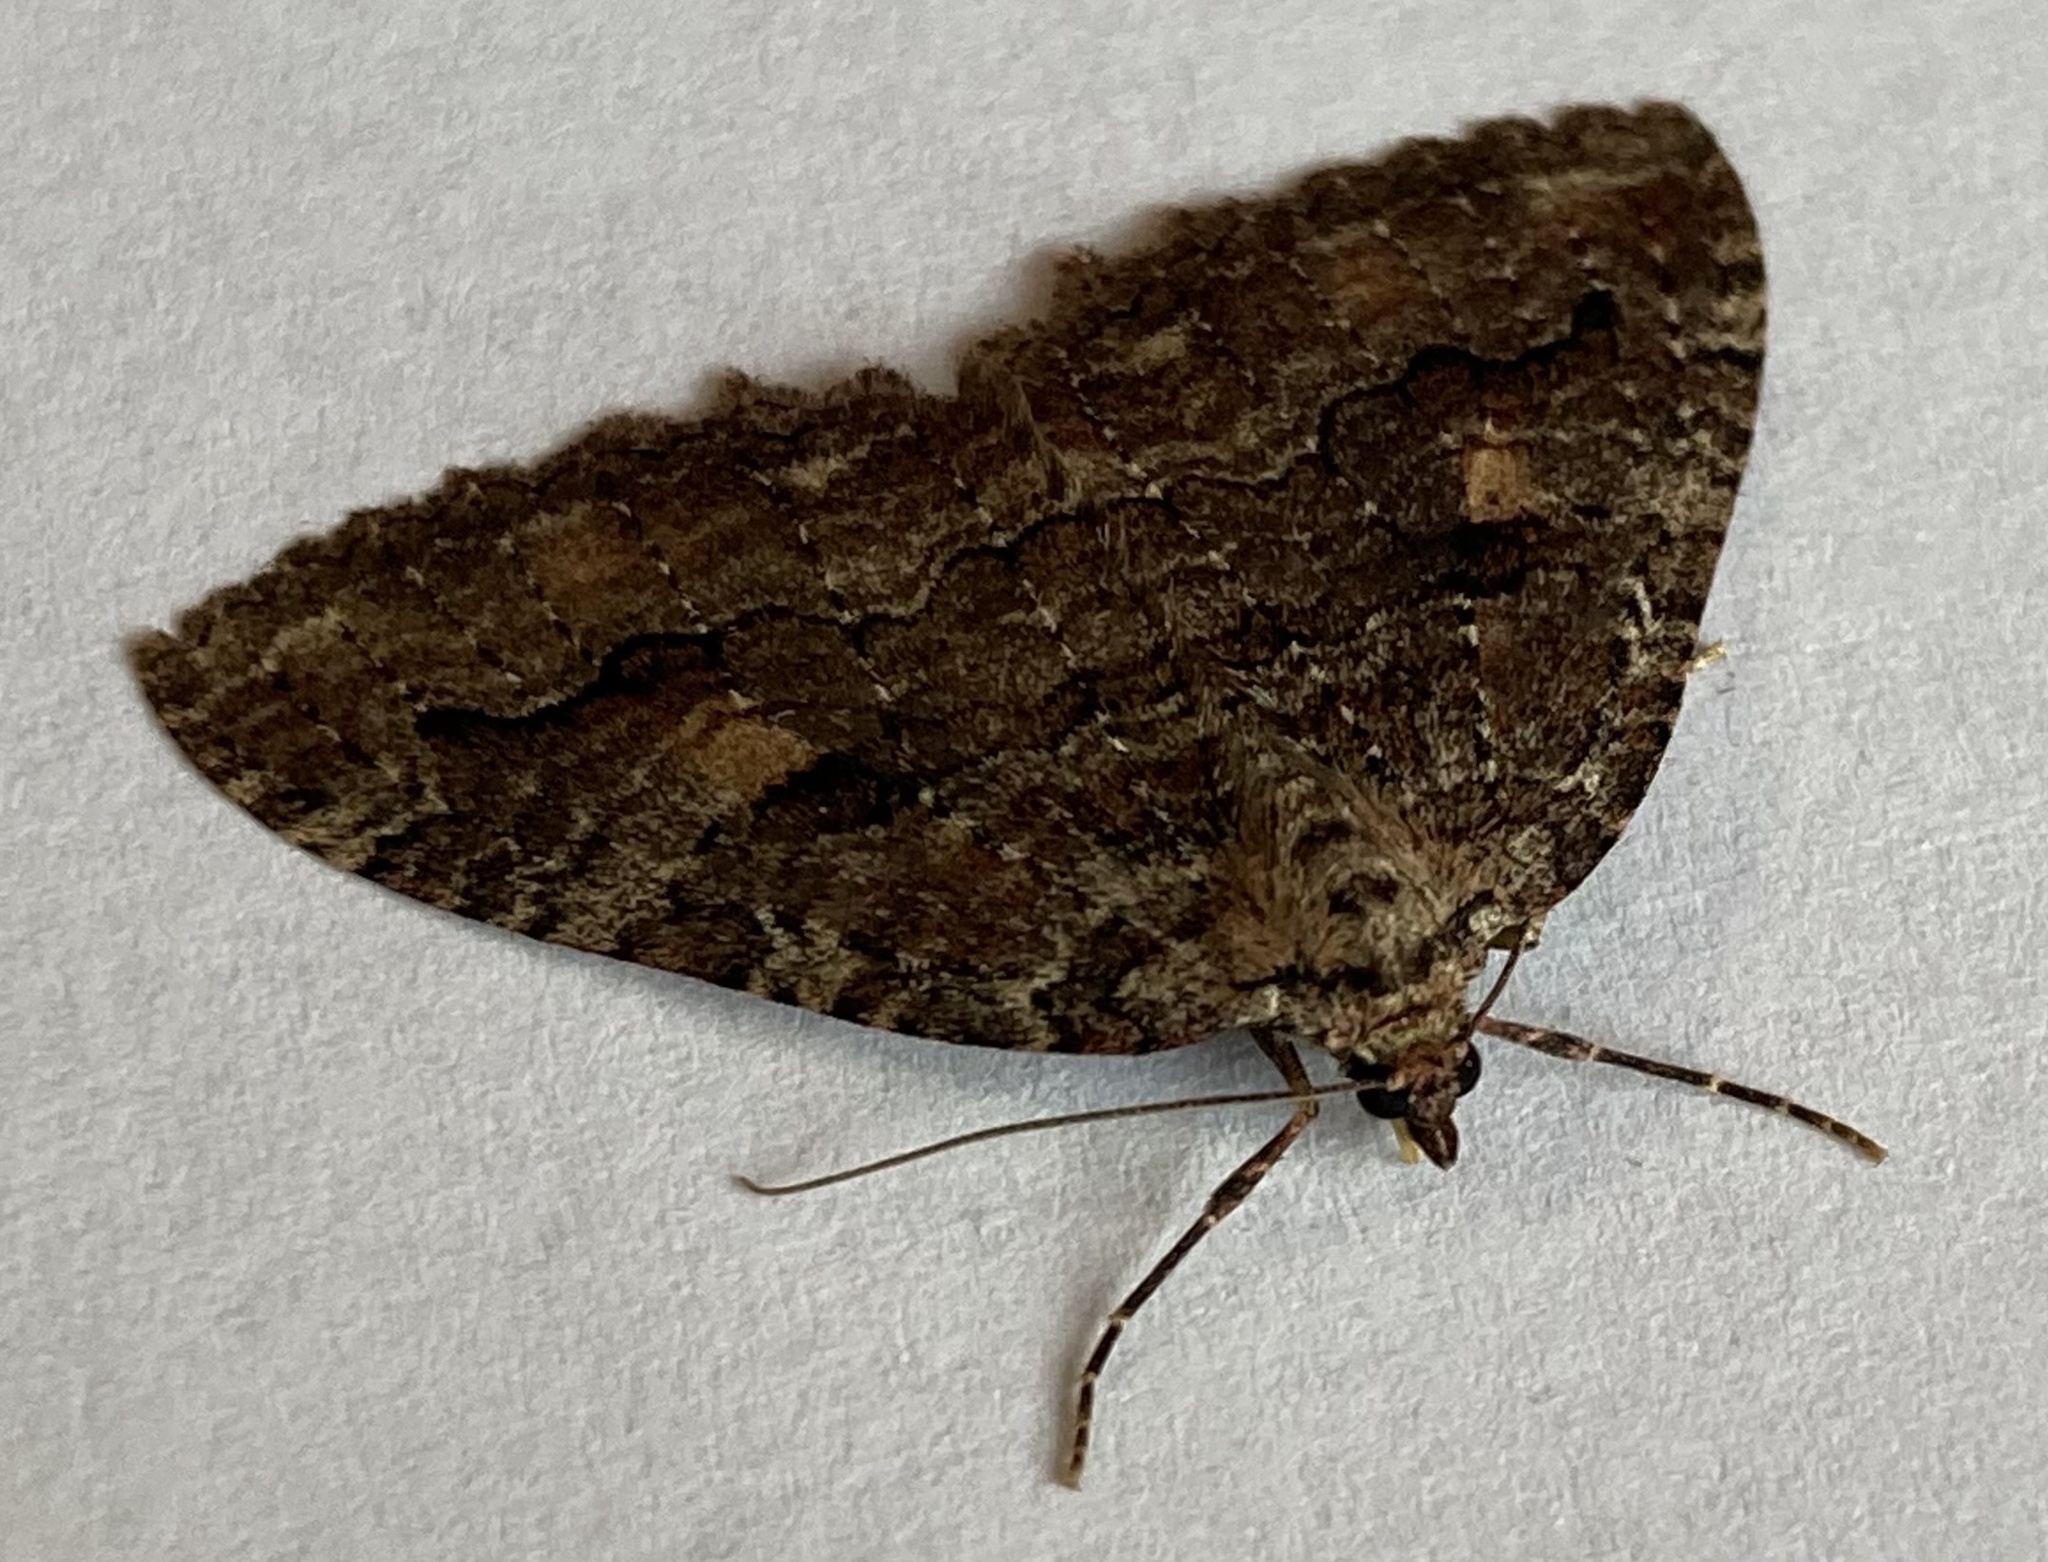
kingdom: Animalia
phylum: Arthropoda
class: Insecta
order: Lepidoptera
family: Geometridae
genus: Triphosa
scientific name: Triphosa haesitata
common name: Tissue moth
